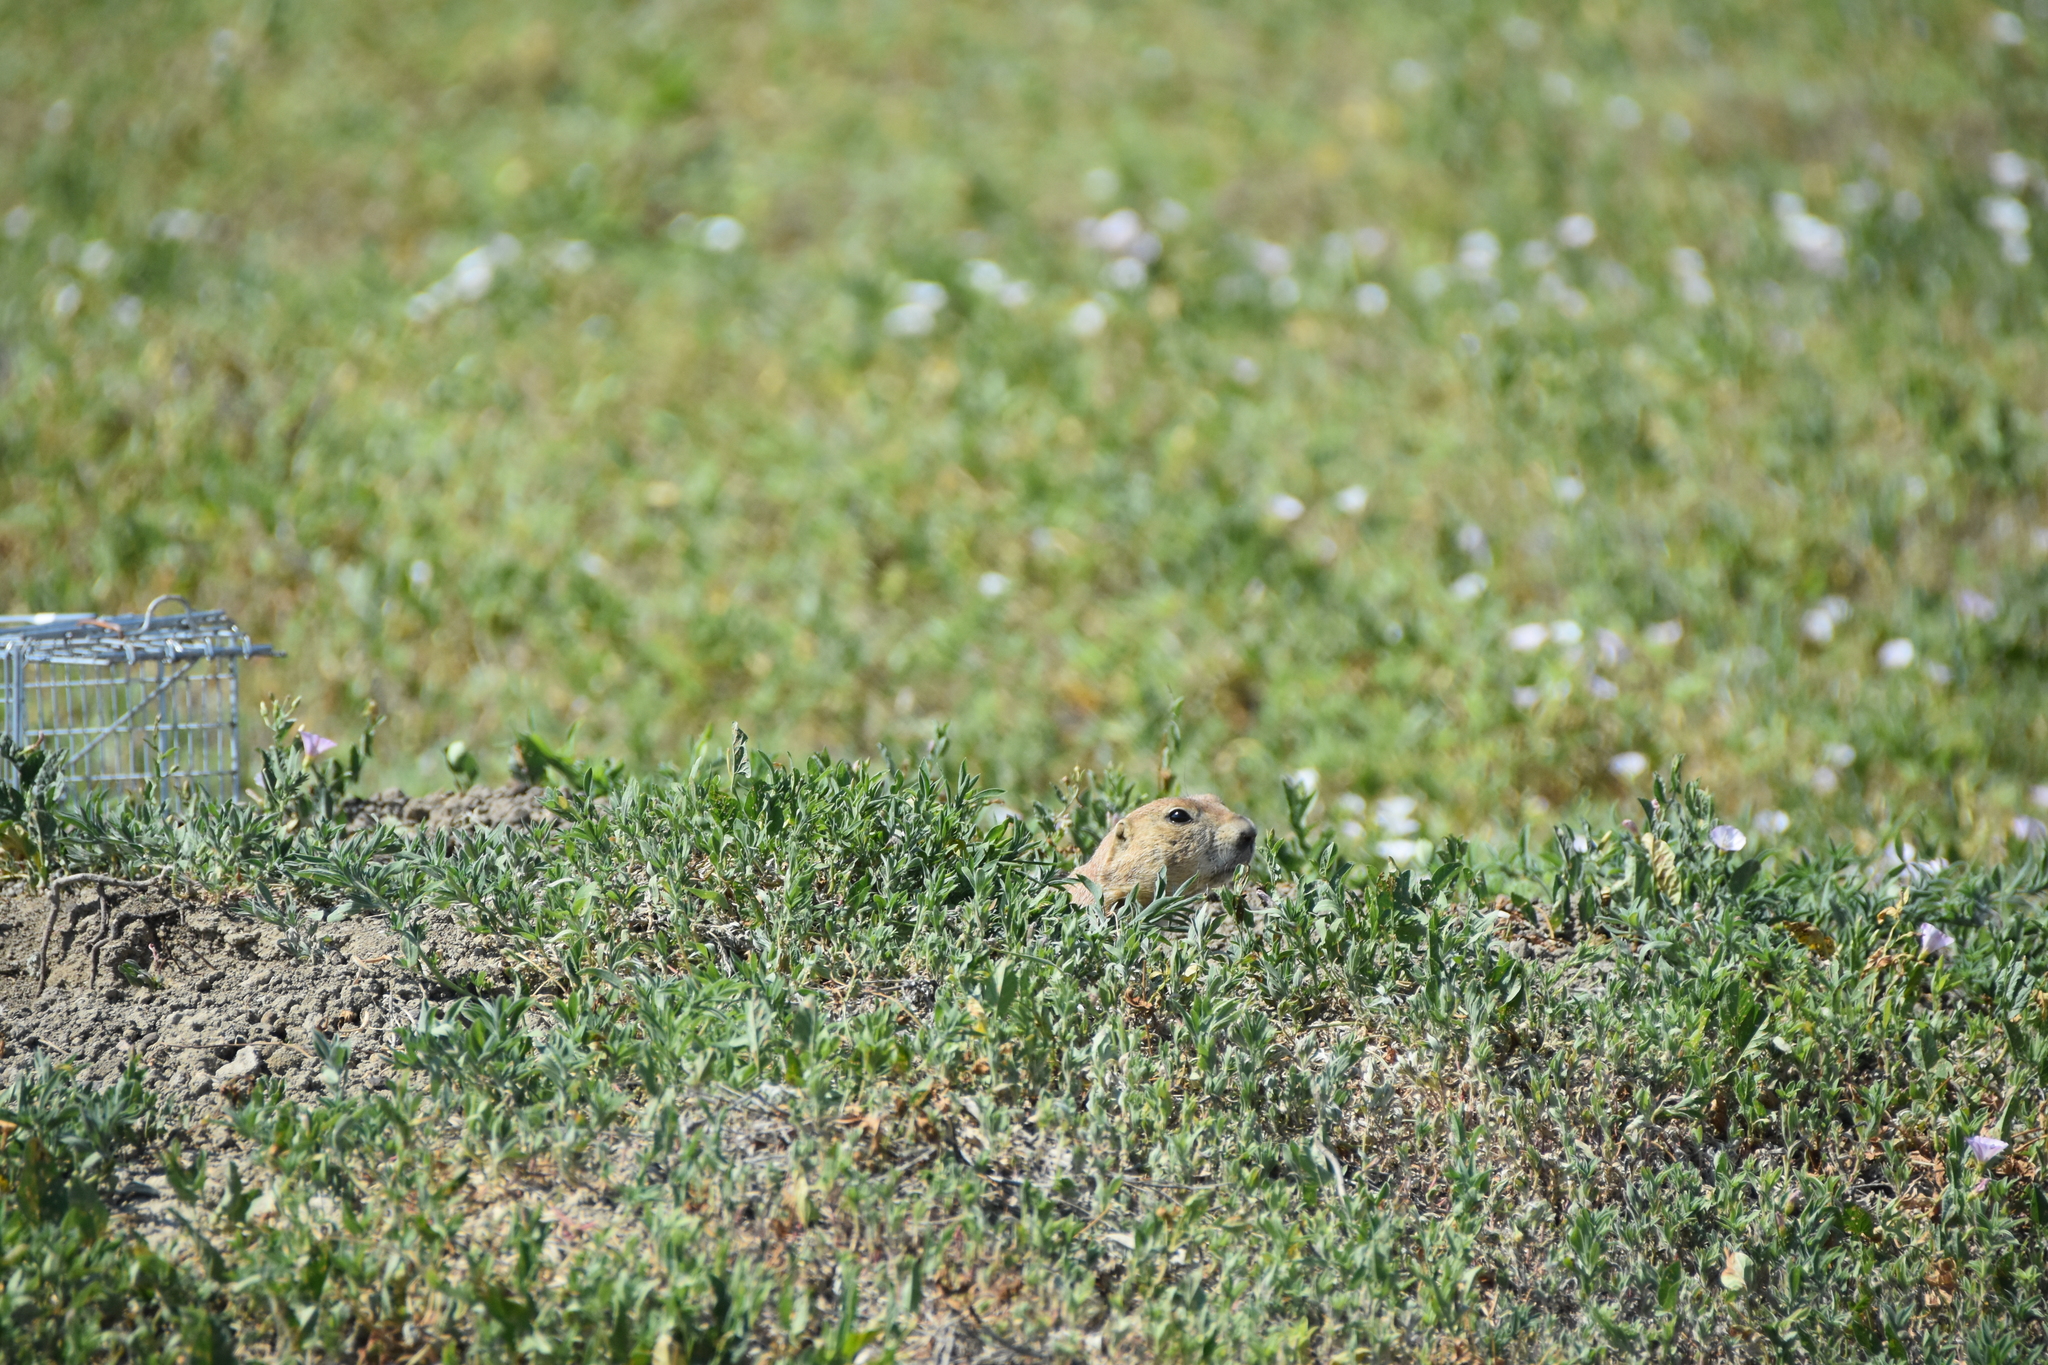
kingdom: Animalia
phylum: Chordata
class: Mammalia
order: Rodentia
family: Sciuridae
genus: Cynomys
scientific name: Cynomys ludovicianus
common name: Black-tailed prairie dog
